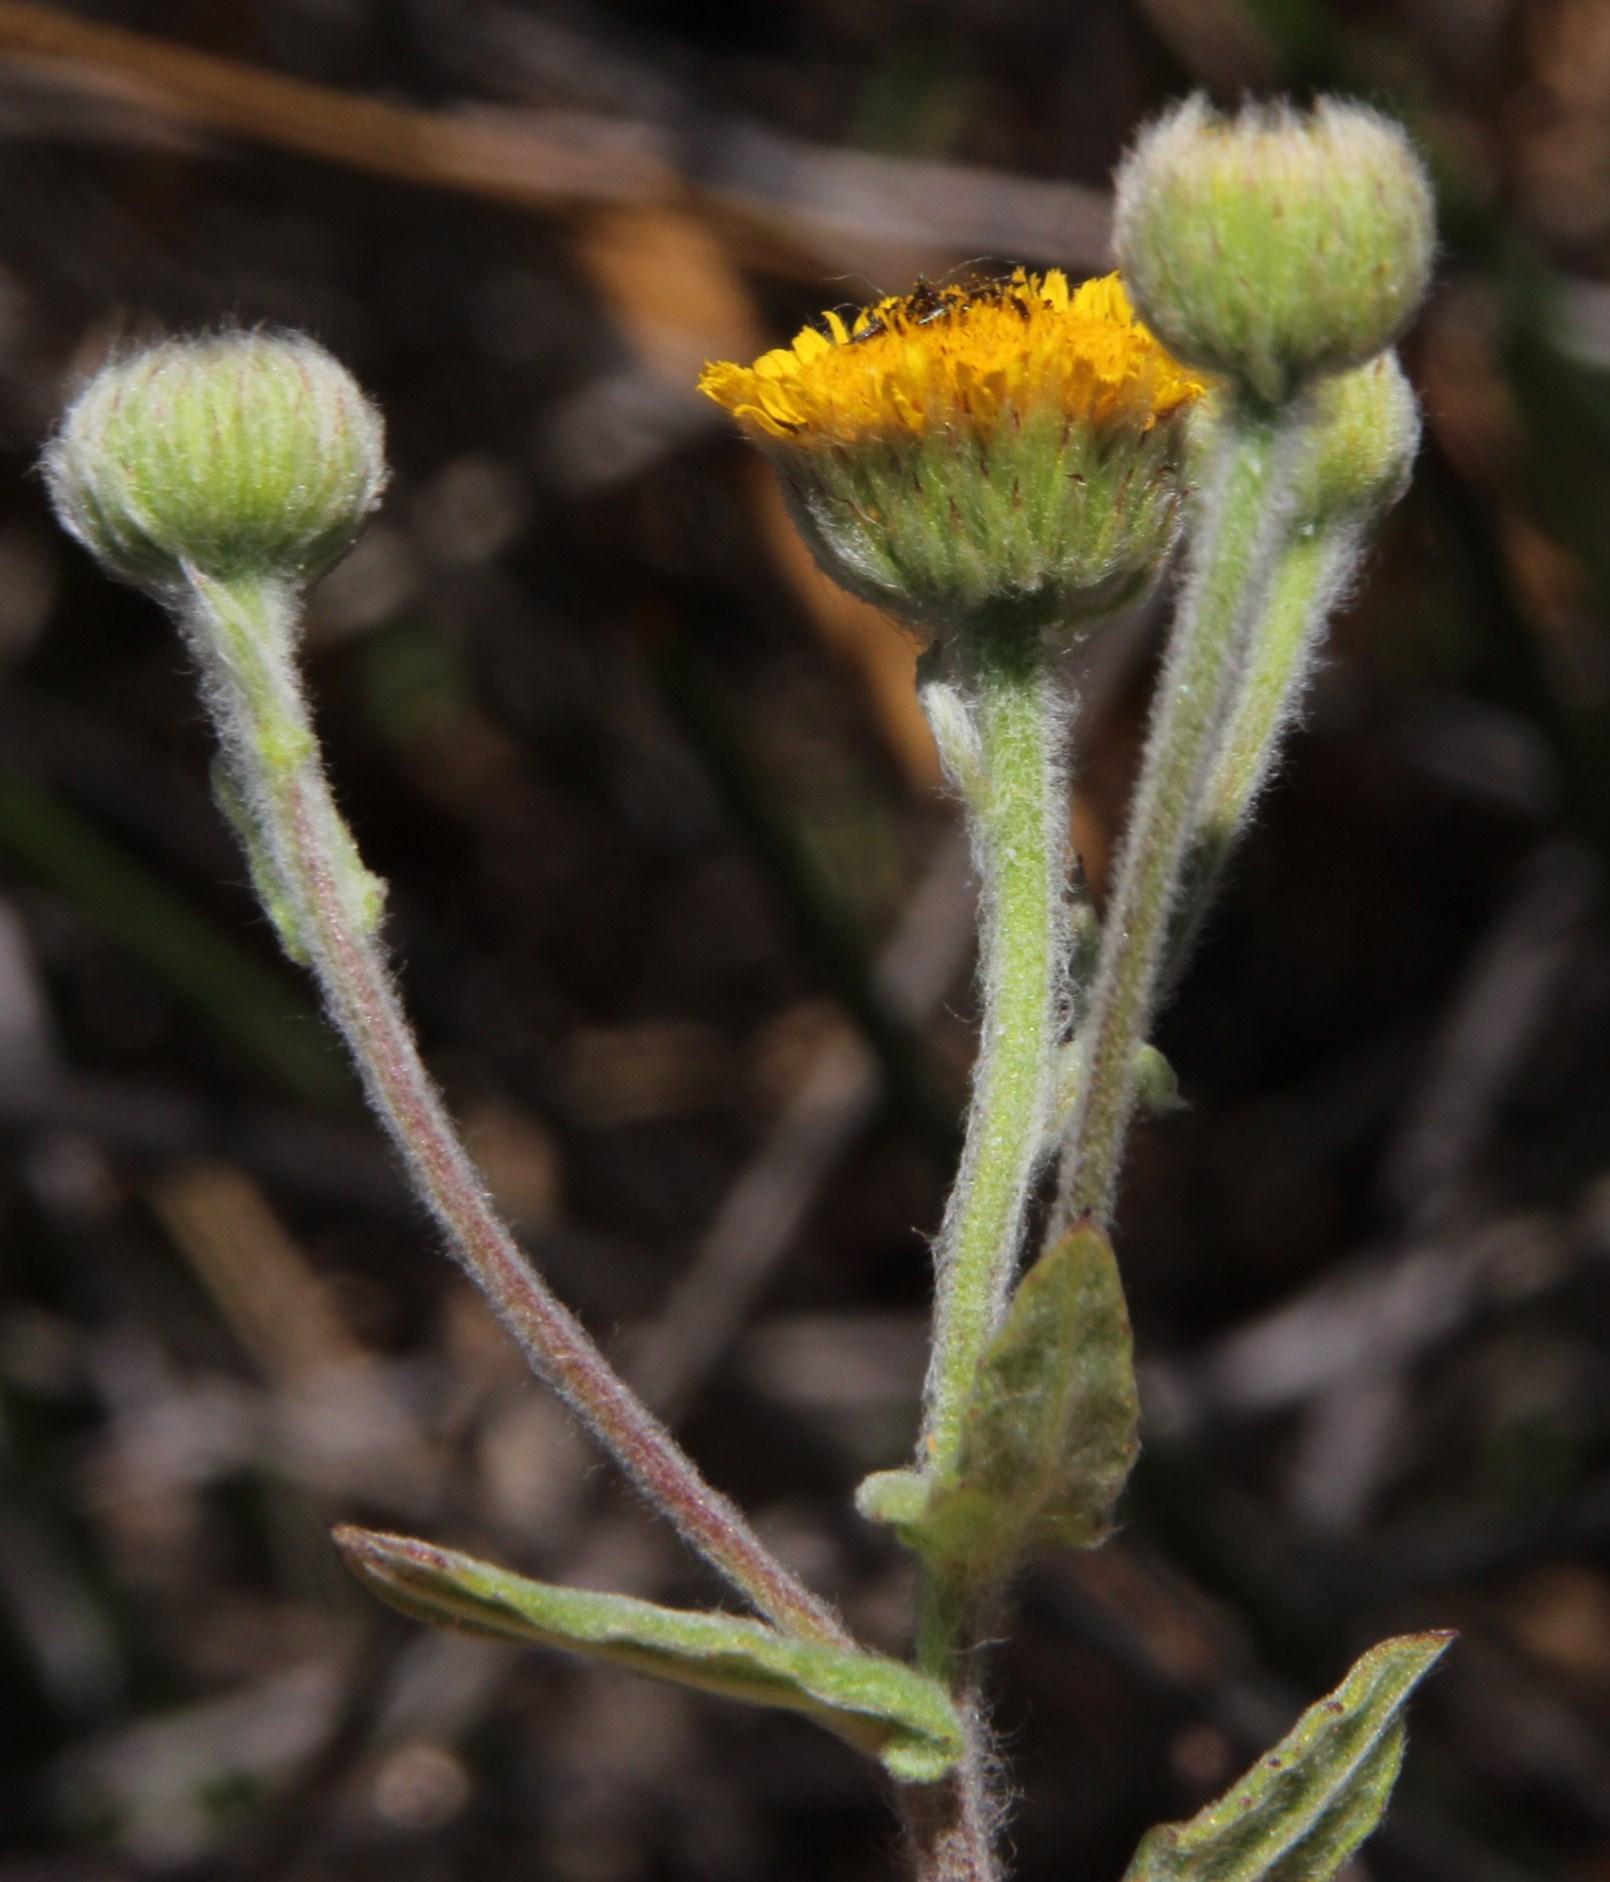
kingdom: Plantae
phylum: Tracheophyta
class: Magnoliopsida
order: Asterales
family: Asteraceae
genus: Pulicaria
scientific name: Pulicaria scabra
